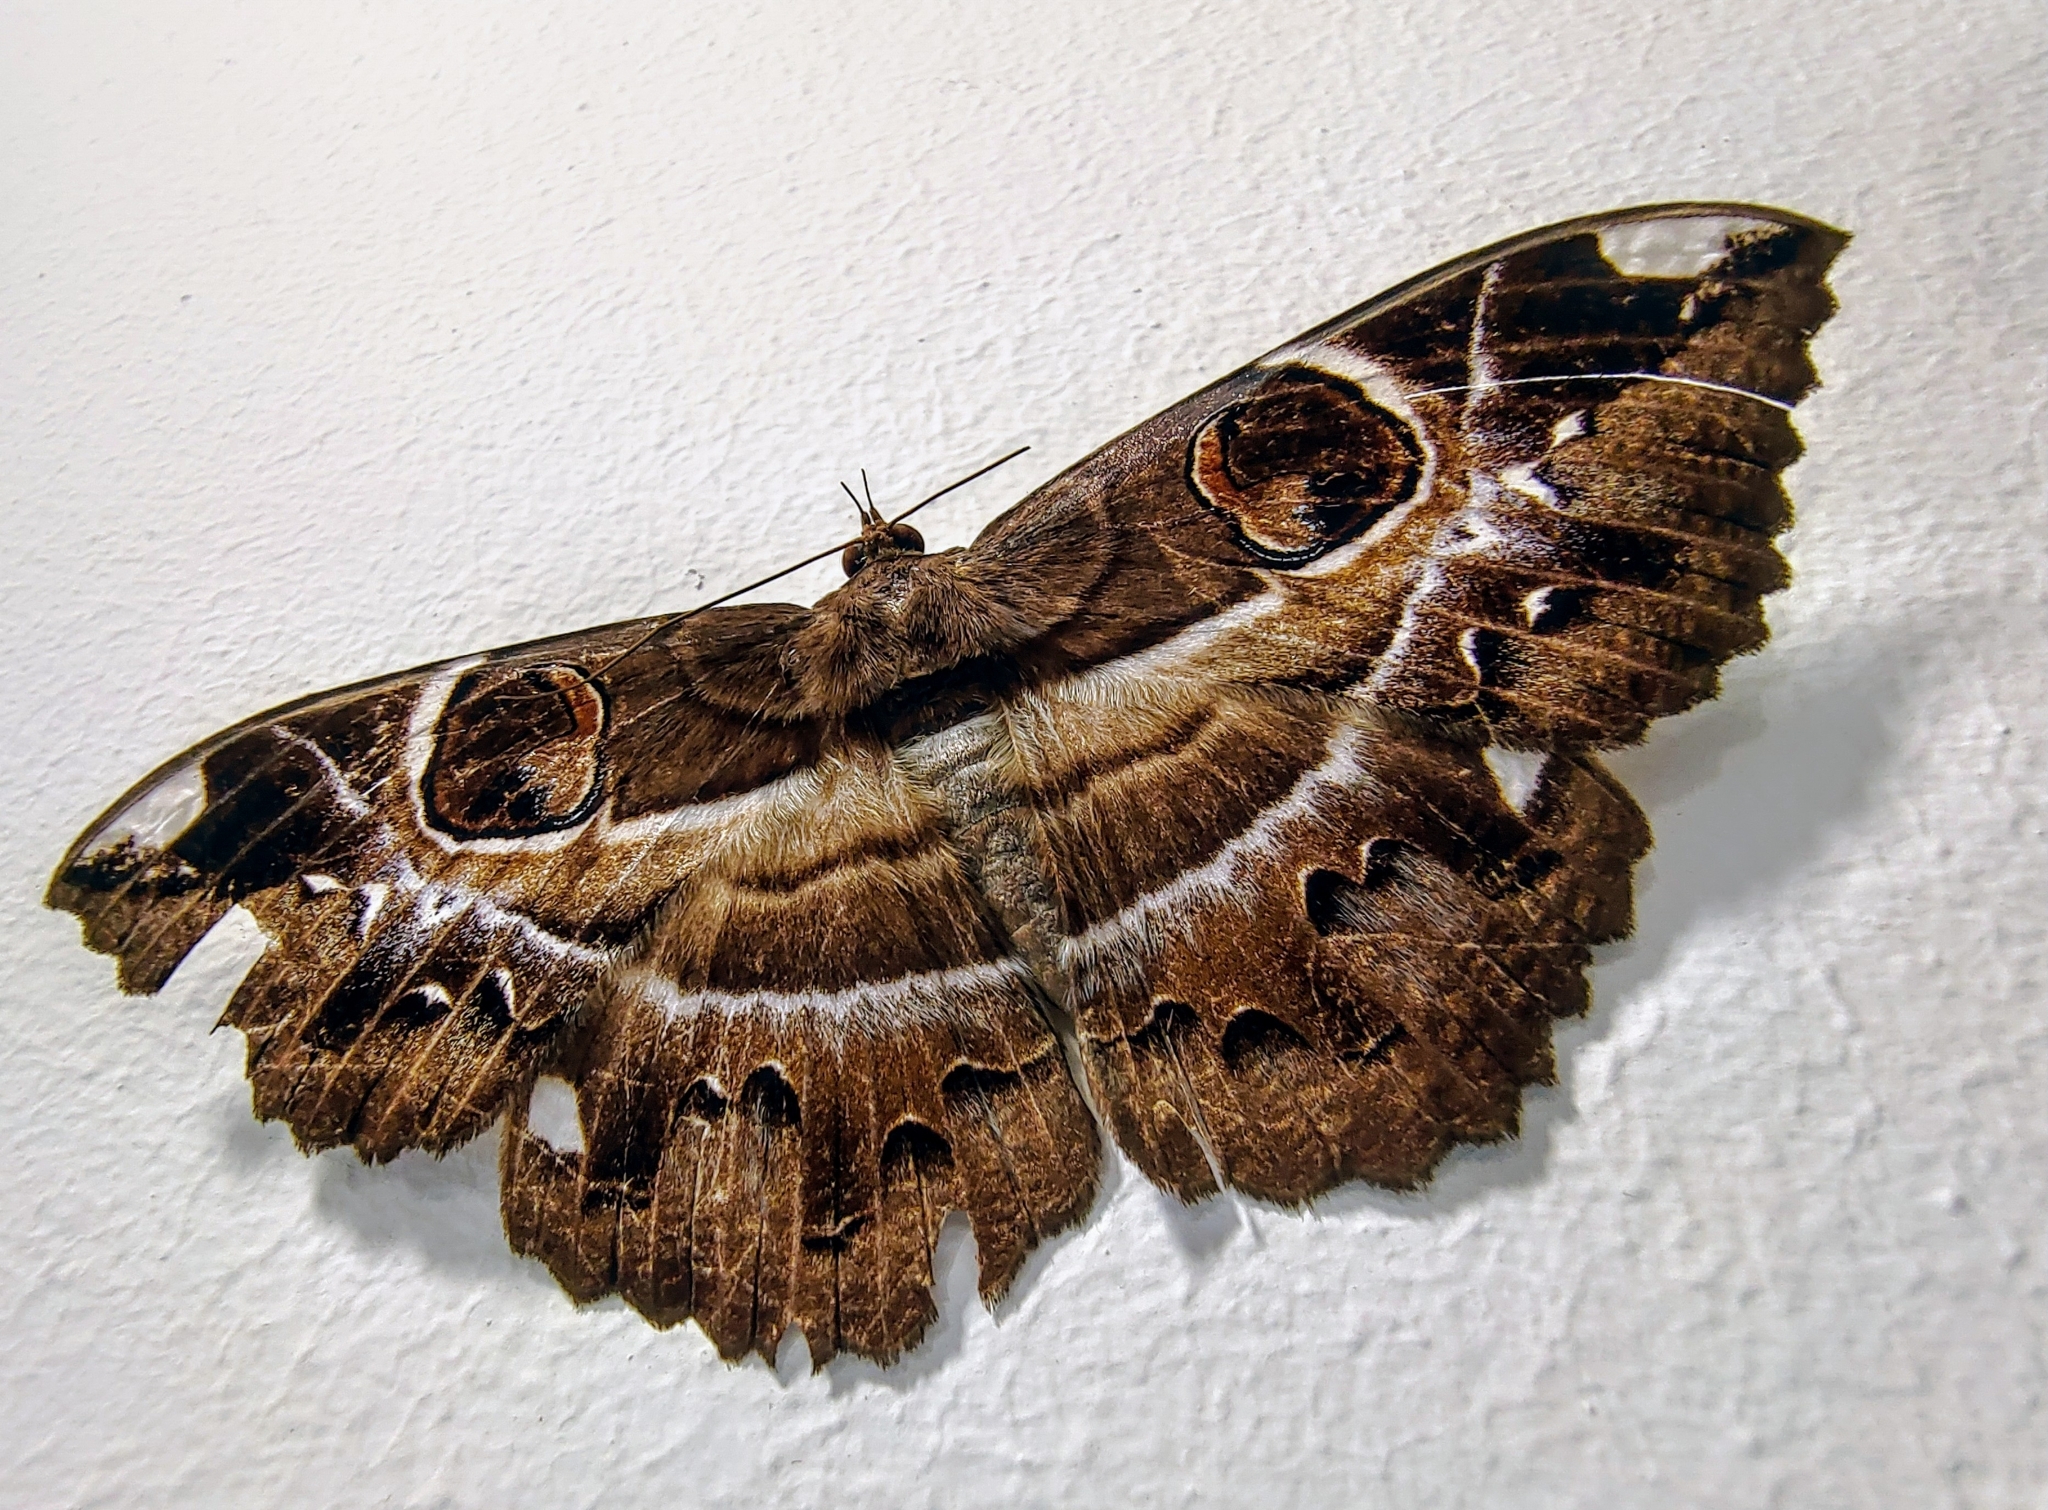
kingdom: Animalia
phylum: Arthropoda
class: Insecta
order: Lepidoptera
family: Erebidae
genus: Erebus
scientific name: Erebus ephesperis
